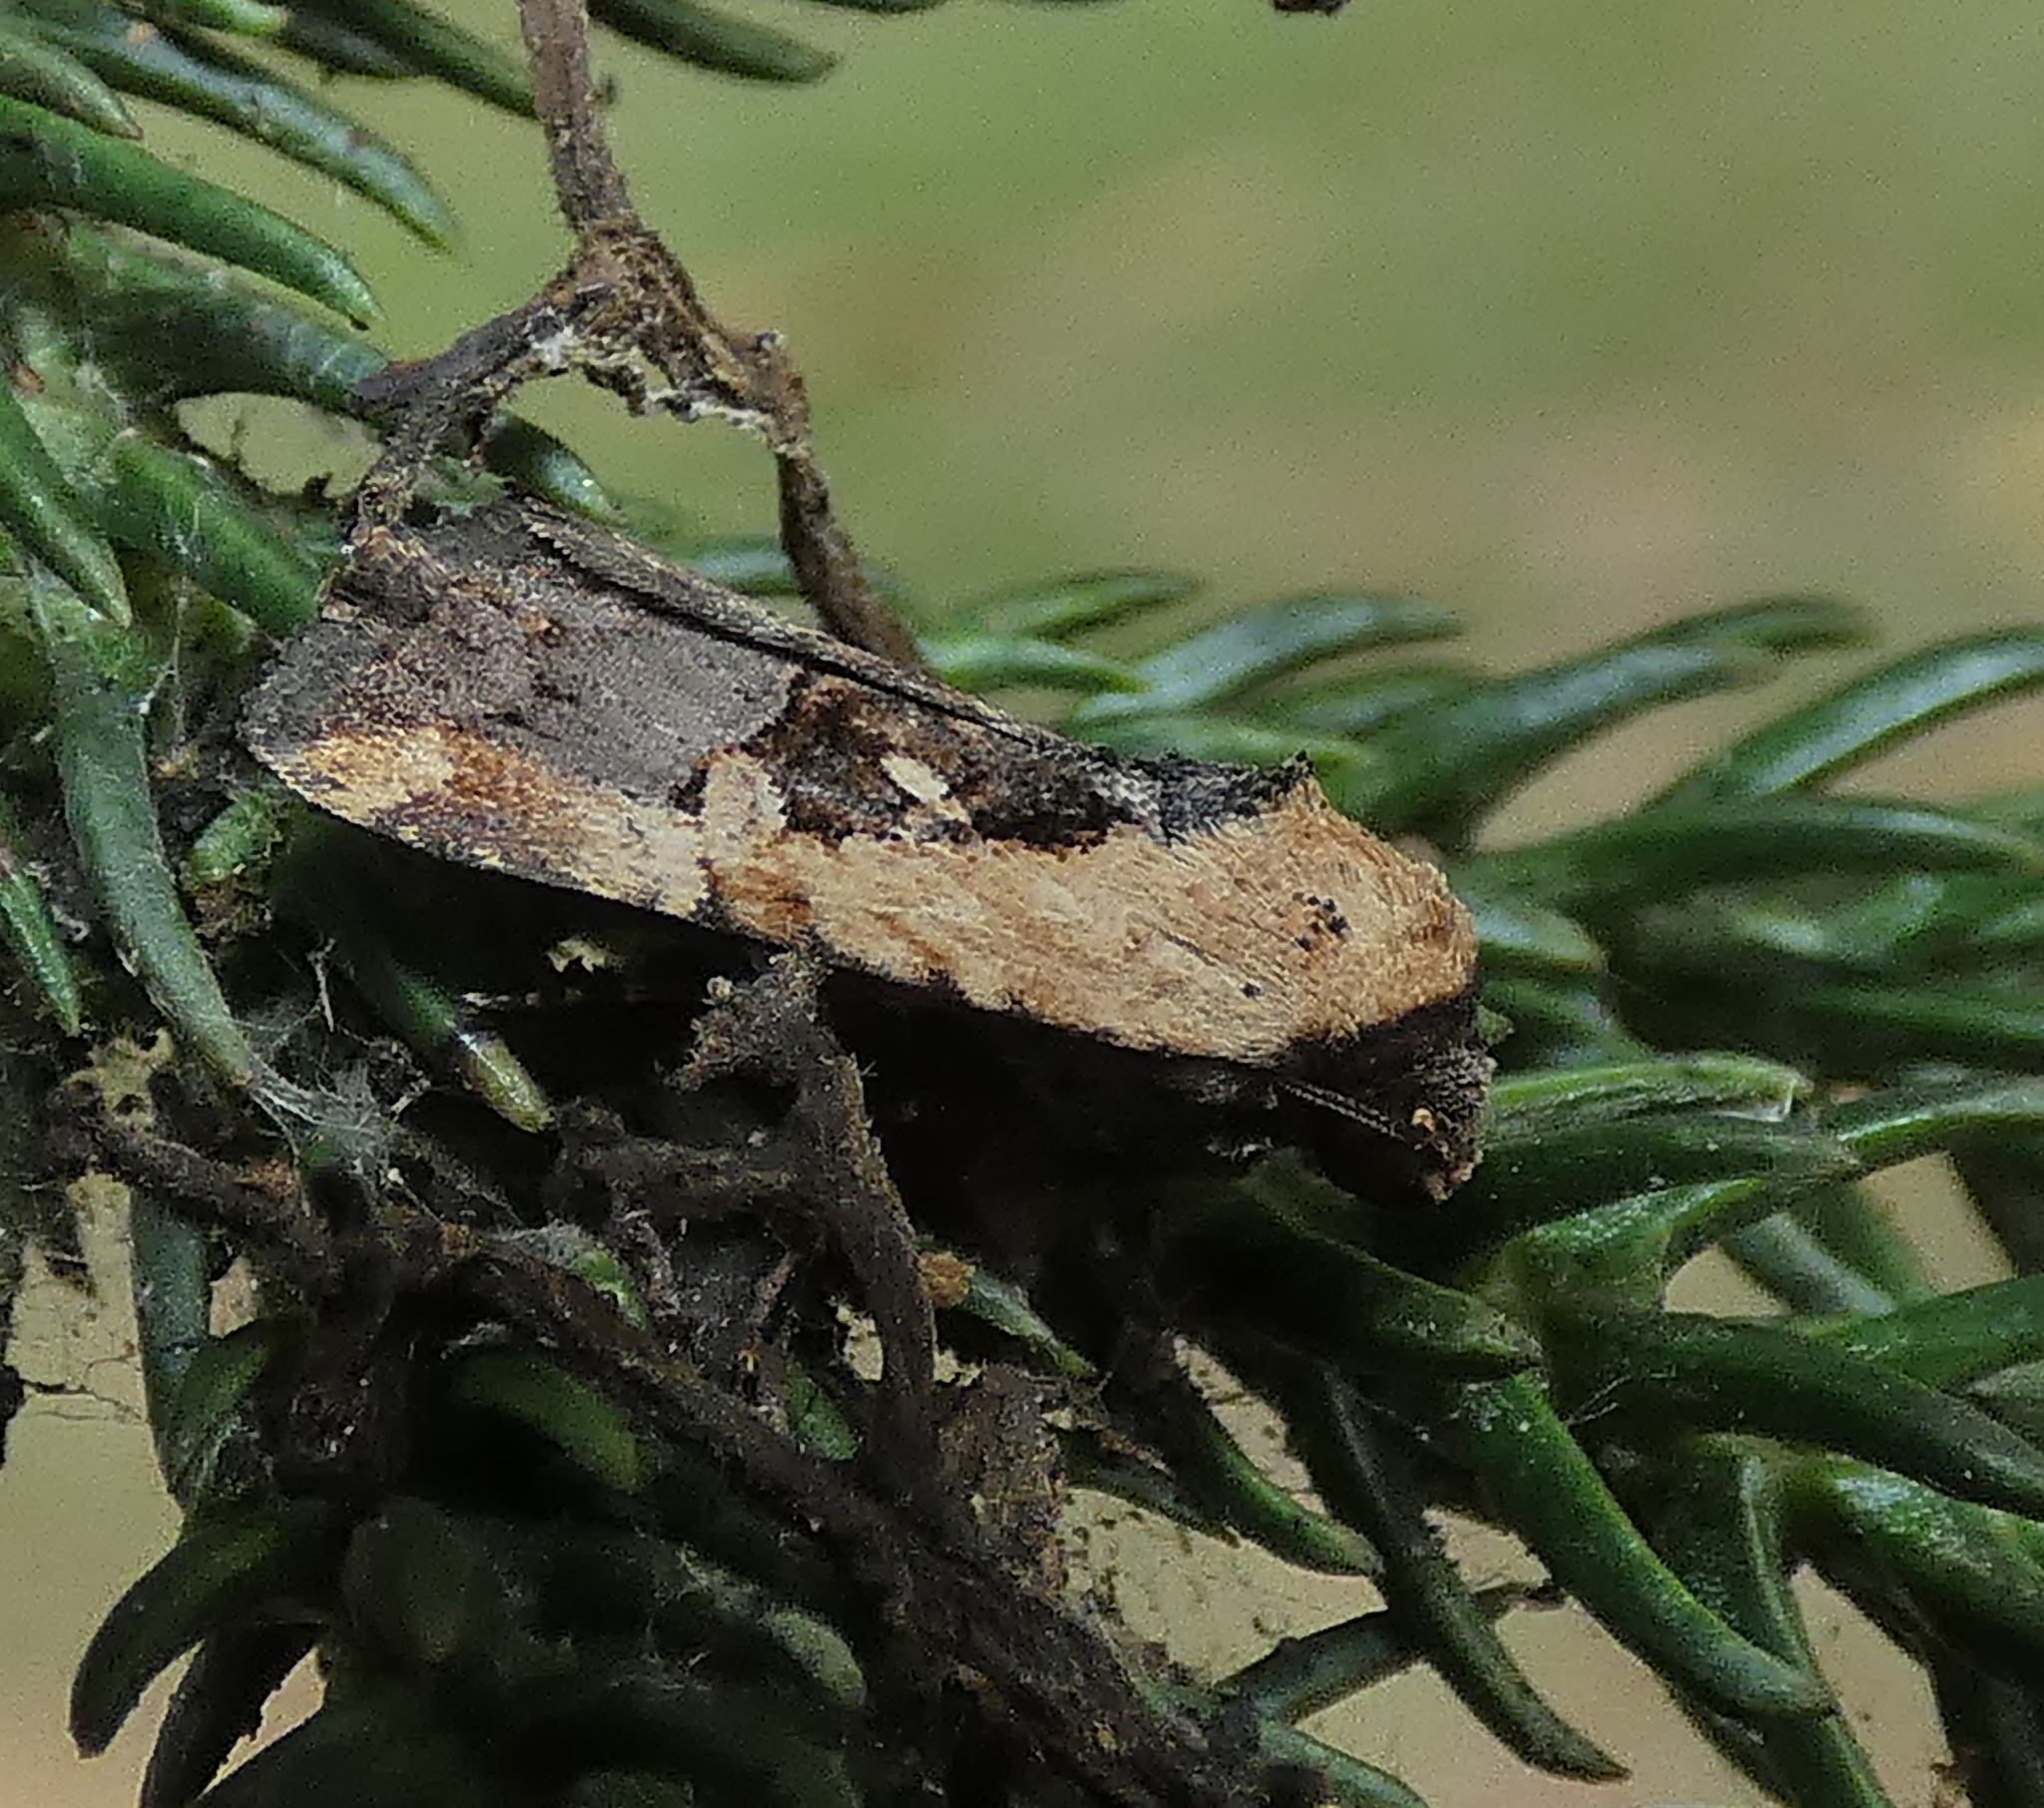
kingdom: Animalia
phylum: Arthropoda
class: Insecta
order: Lepidoptera
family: Noctuidae
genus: Elaphria
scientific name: Elaphria agrotina
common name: Agrotina midget
